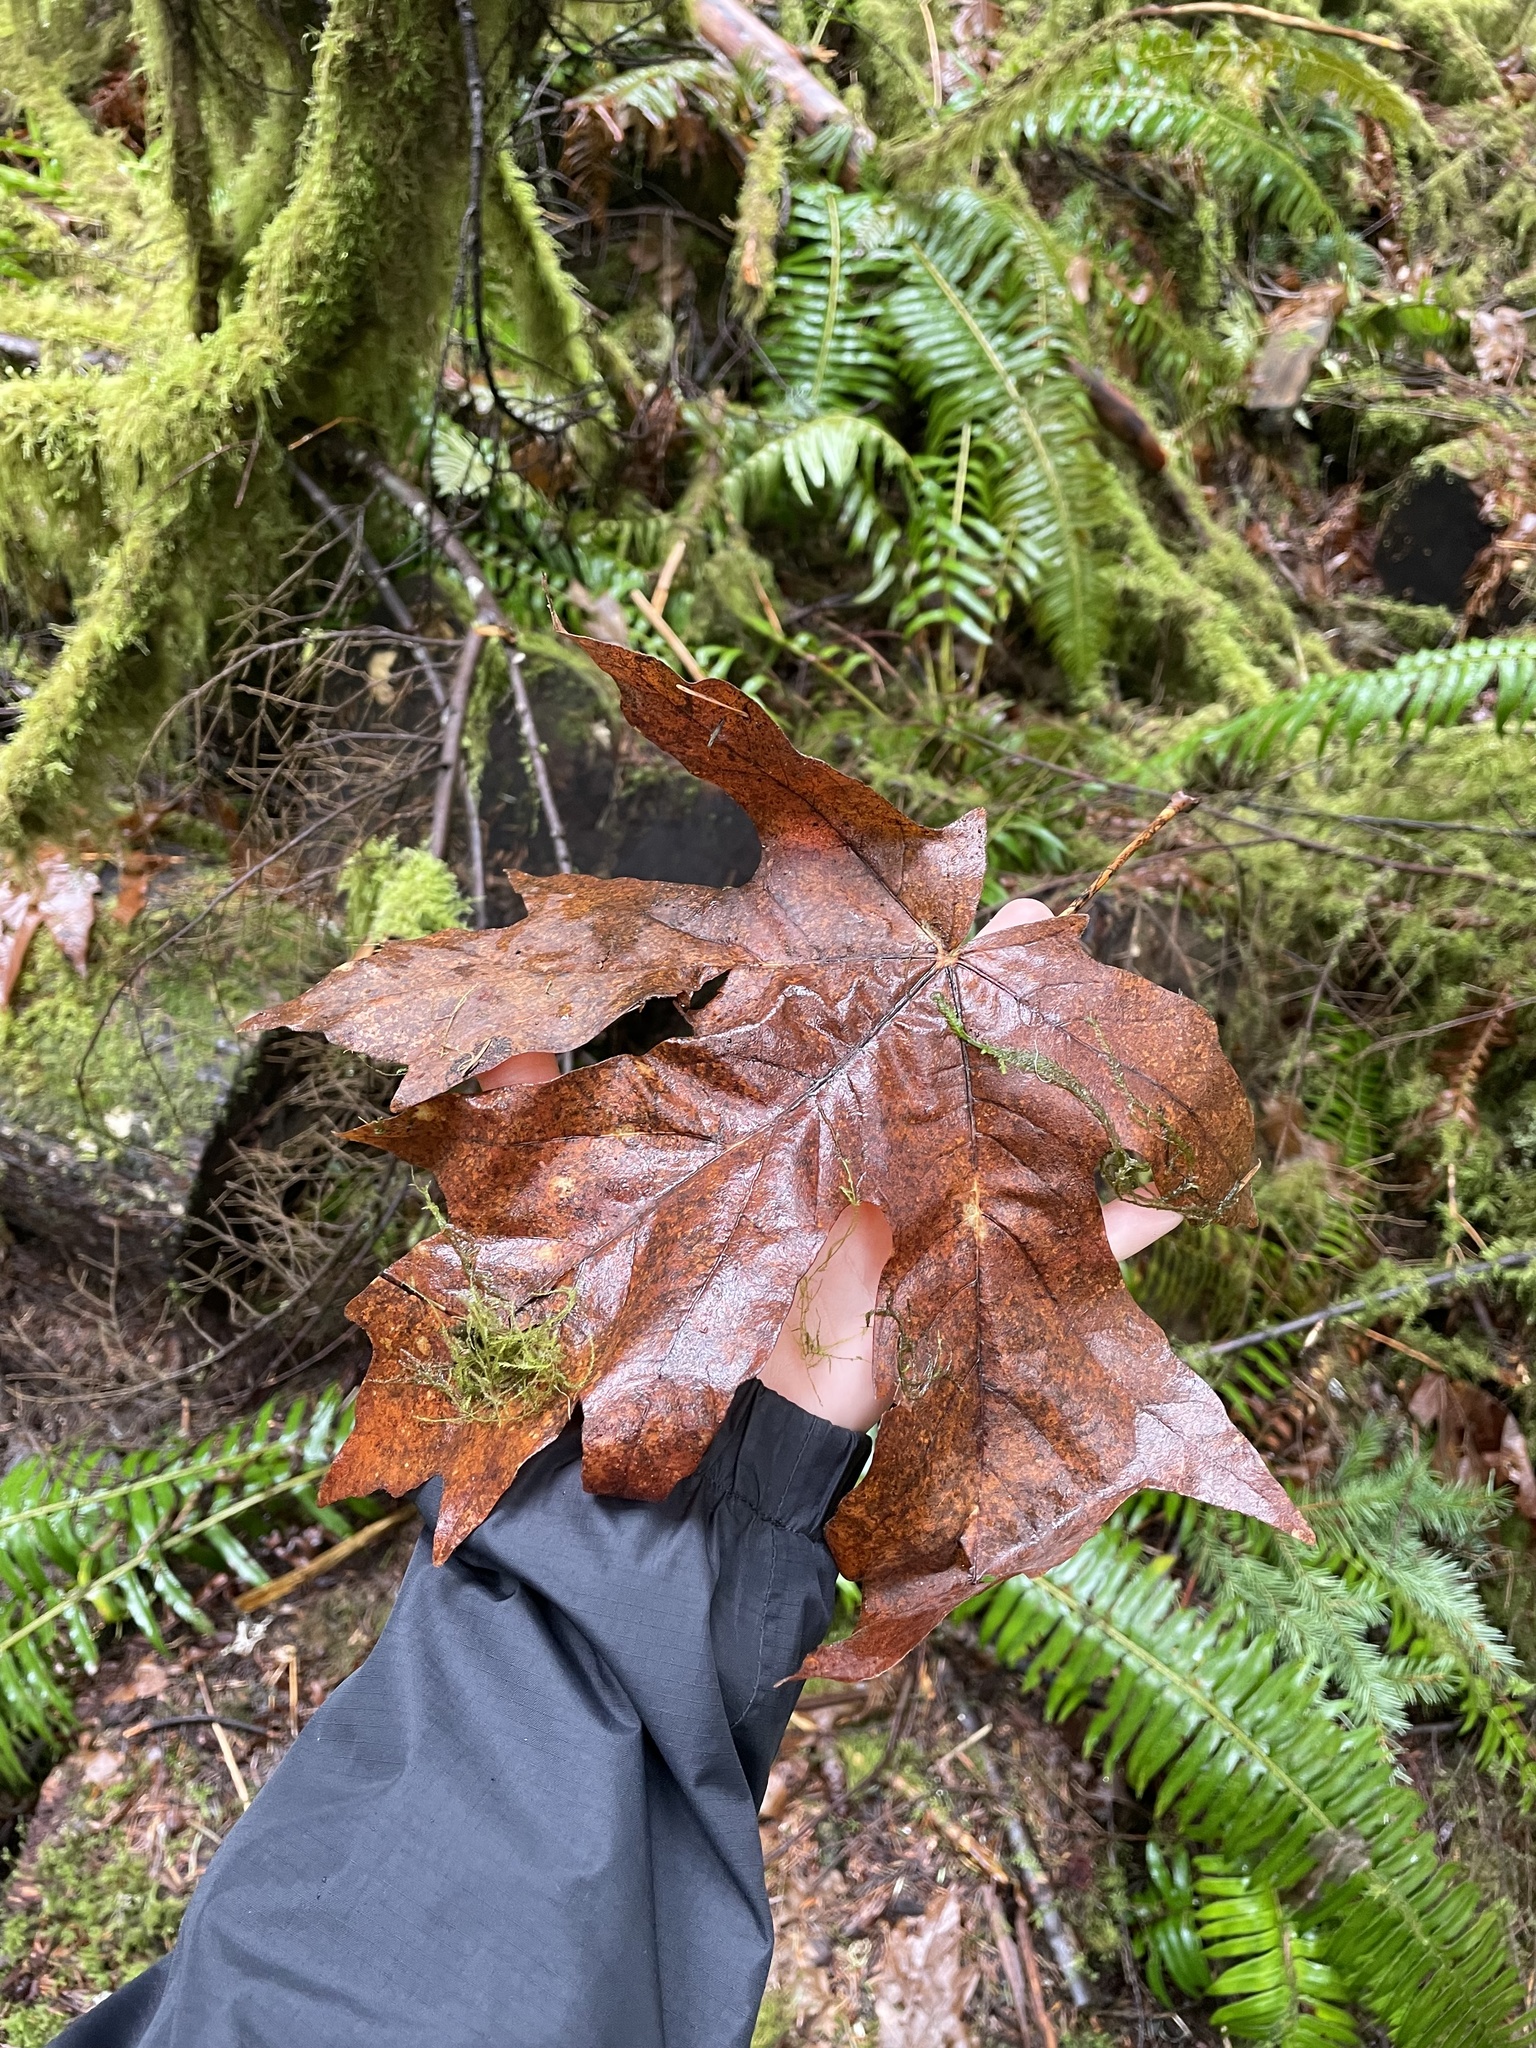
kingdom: Plantae
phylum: Tracheophyta
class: Magnoliopsida
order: Sapindales
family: Sapindaceae
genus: Acer
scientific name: Acer macrophyllum
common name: Oregon maple
